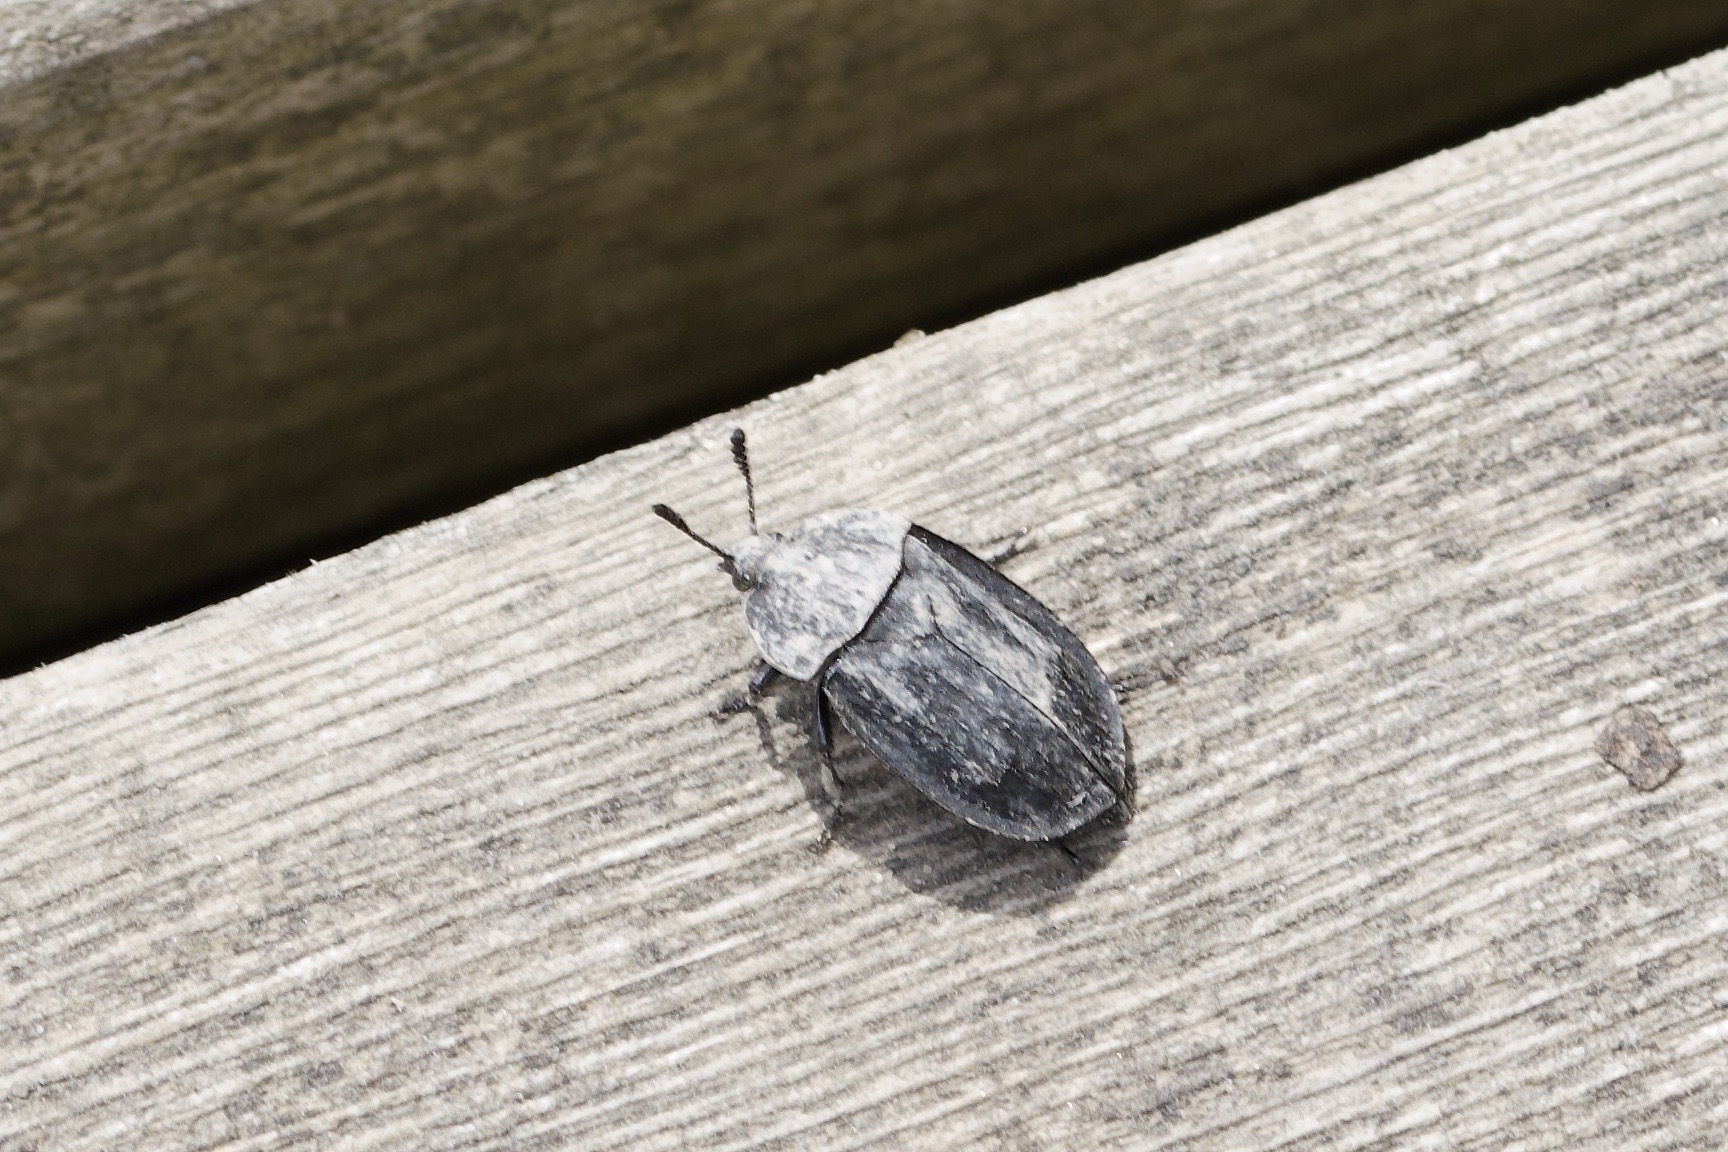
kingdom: Animalia
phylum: Arthropoda
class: Insecta
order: Coleoptera
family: Staphylinidae
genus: Oiceoptoma
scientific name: Oiceoptoma inaequale
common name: Ridged carrion beetle
